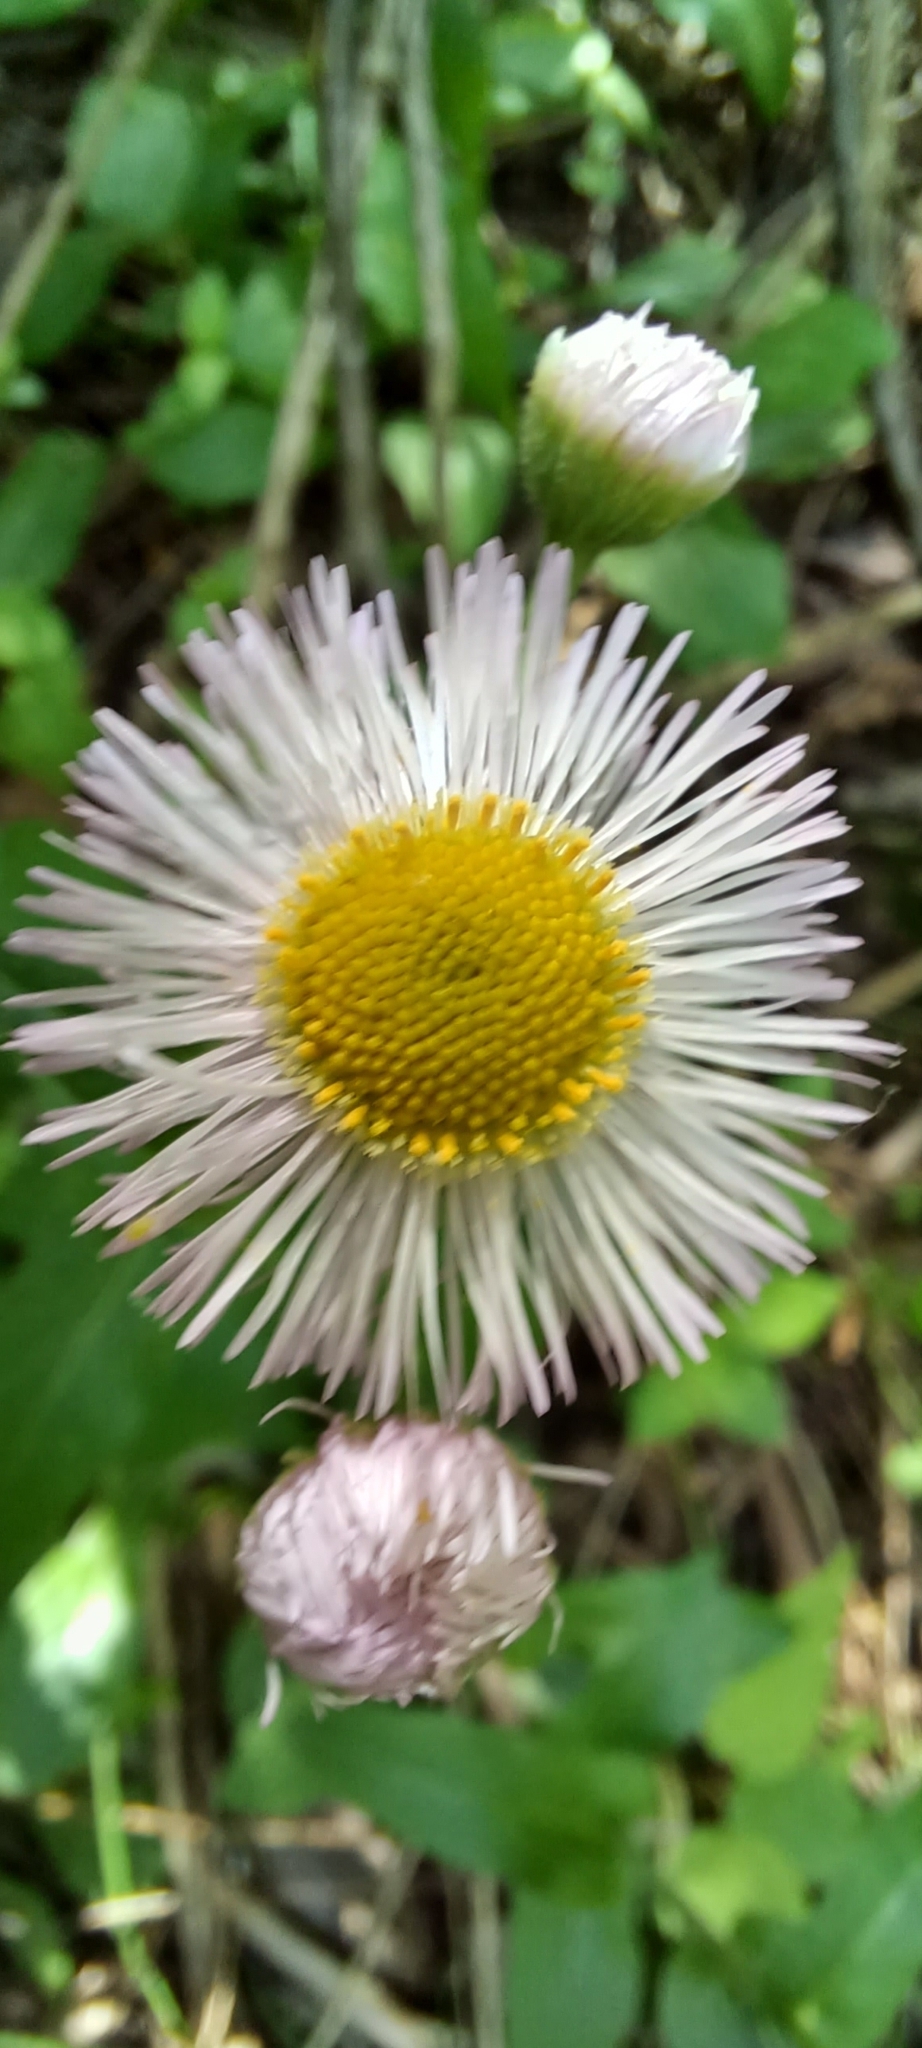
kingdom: Plantae
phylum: Tracheophyta
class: Magnoliopsida
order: Asterales
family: Asteraceae
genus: Erigeron
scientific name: Erigeron philadelphicus
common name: Robin's-plantain
